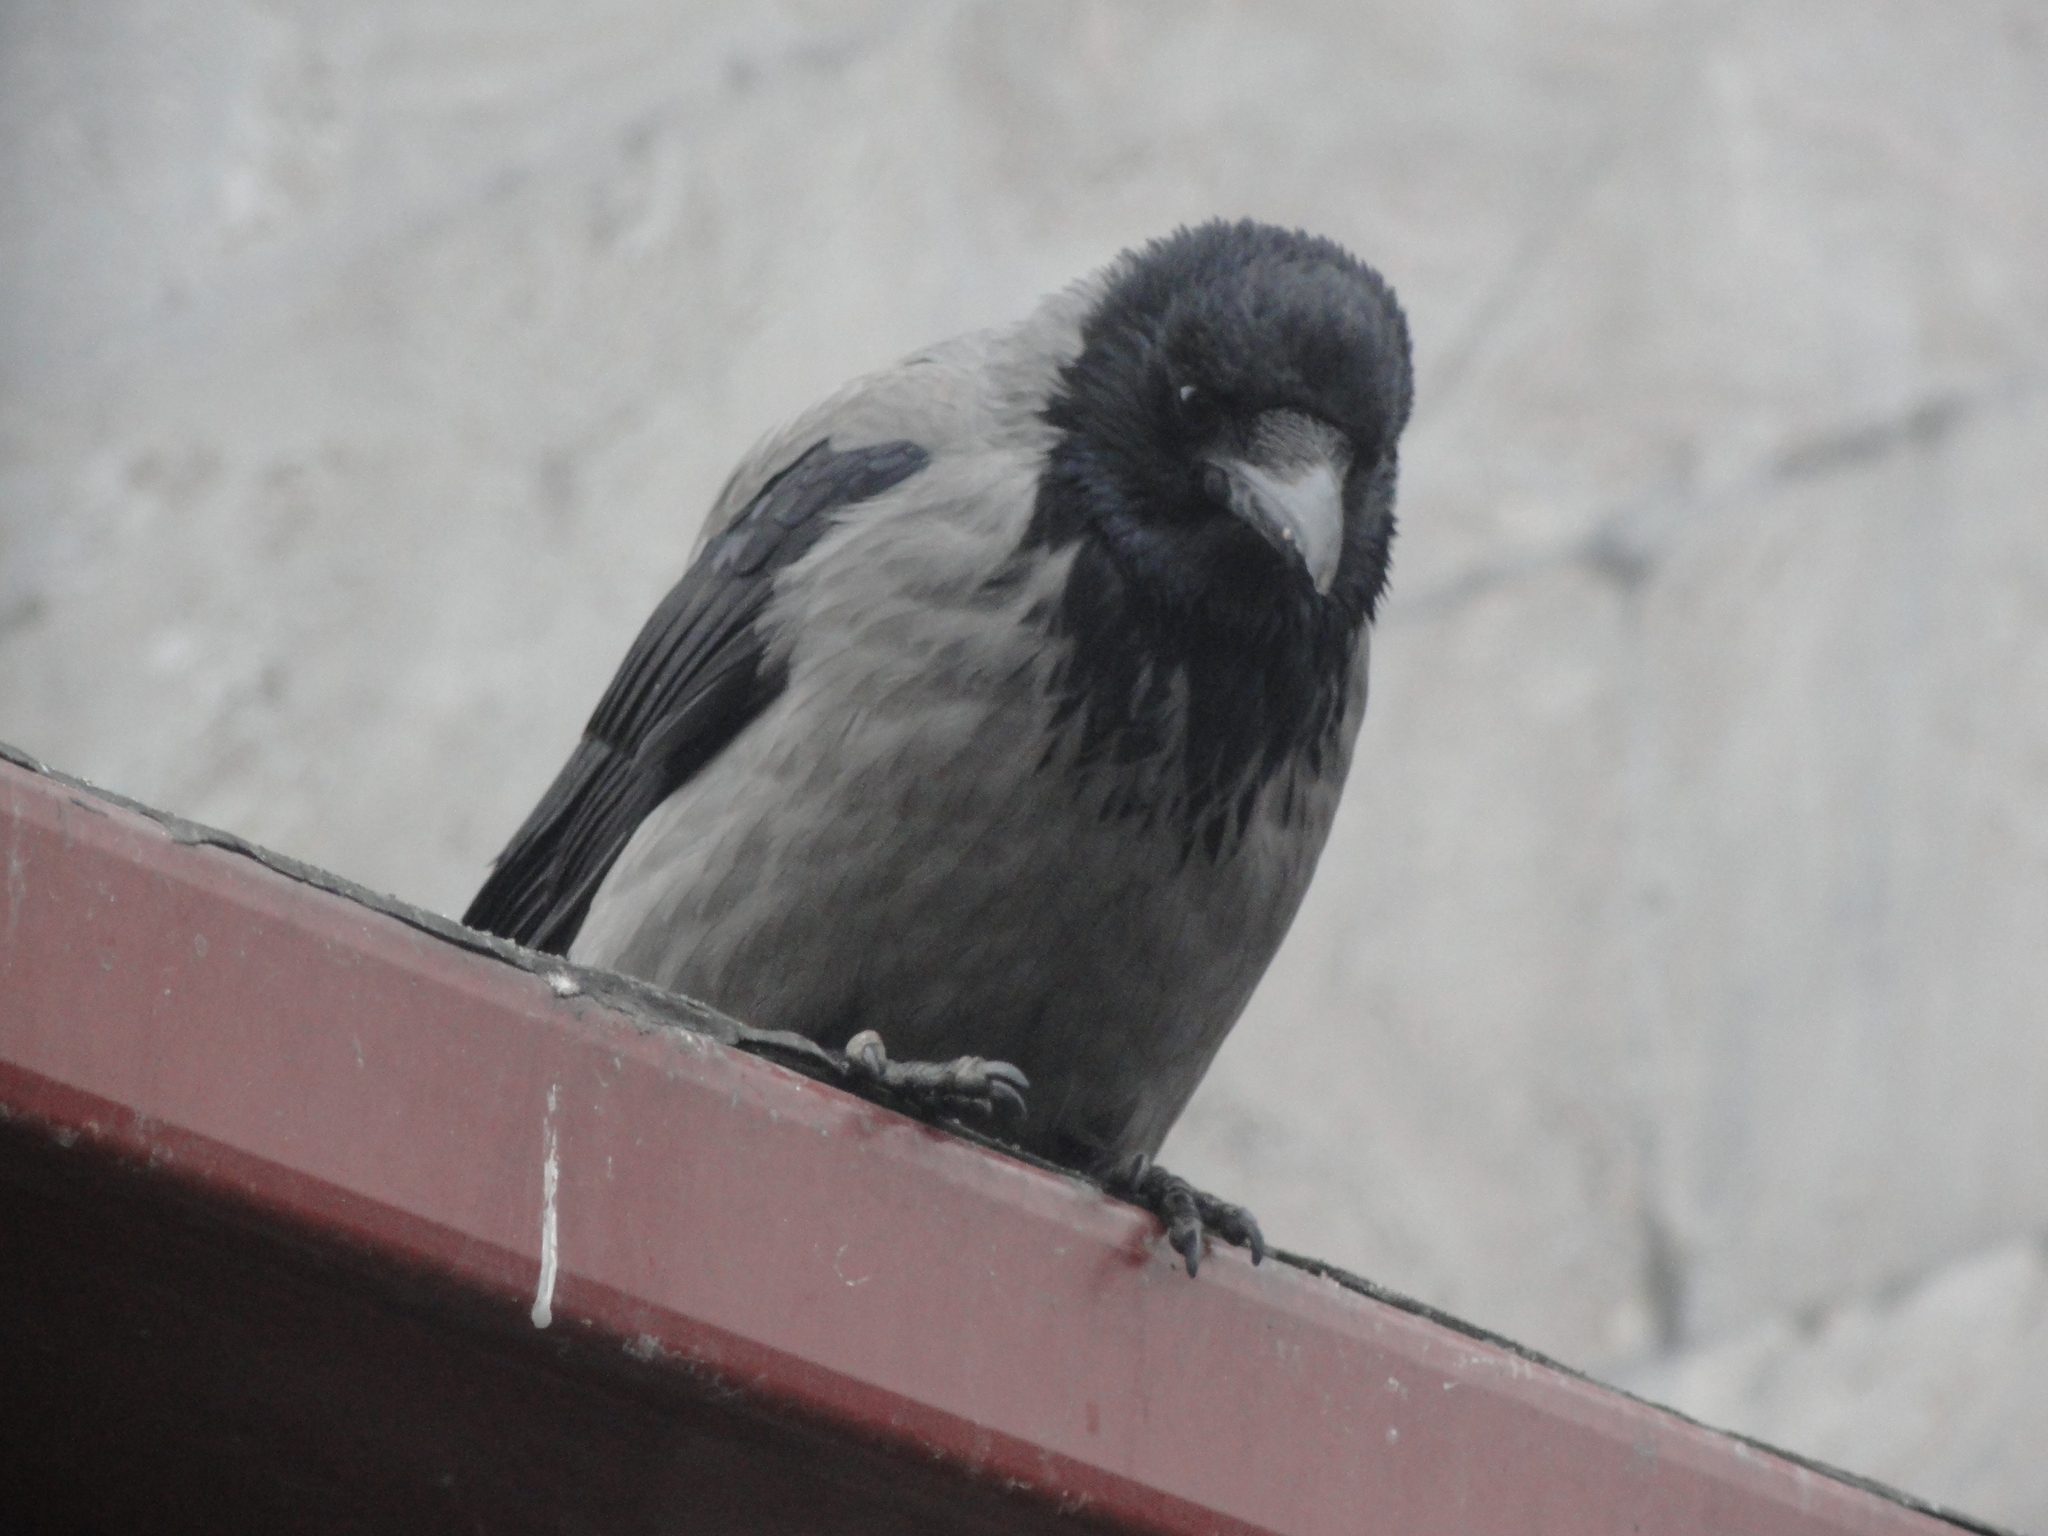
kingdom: Animalia
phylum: Chordata
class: Aves
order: Passeriformes
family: Corvidae
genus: Corvus
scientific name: Corvus cornix
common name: Hooded crow
